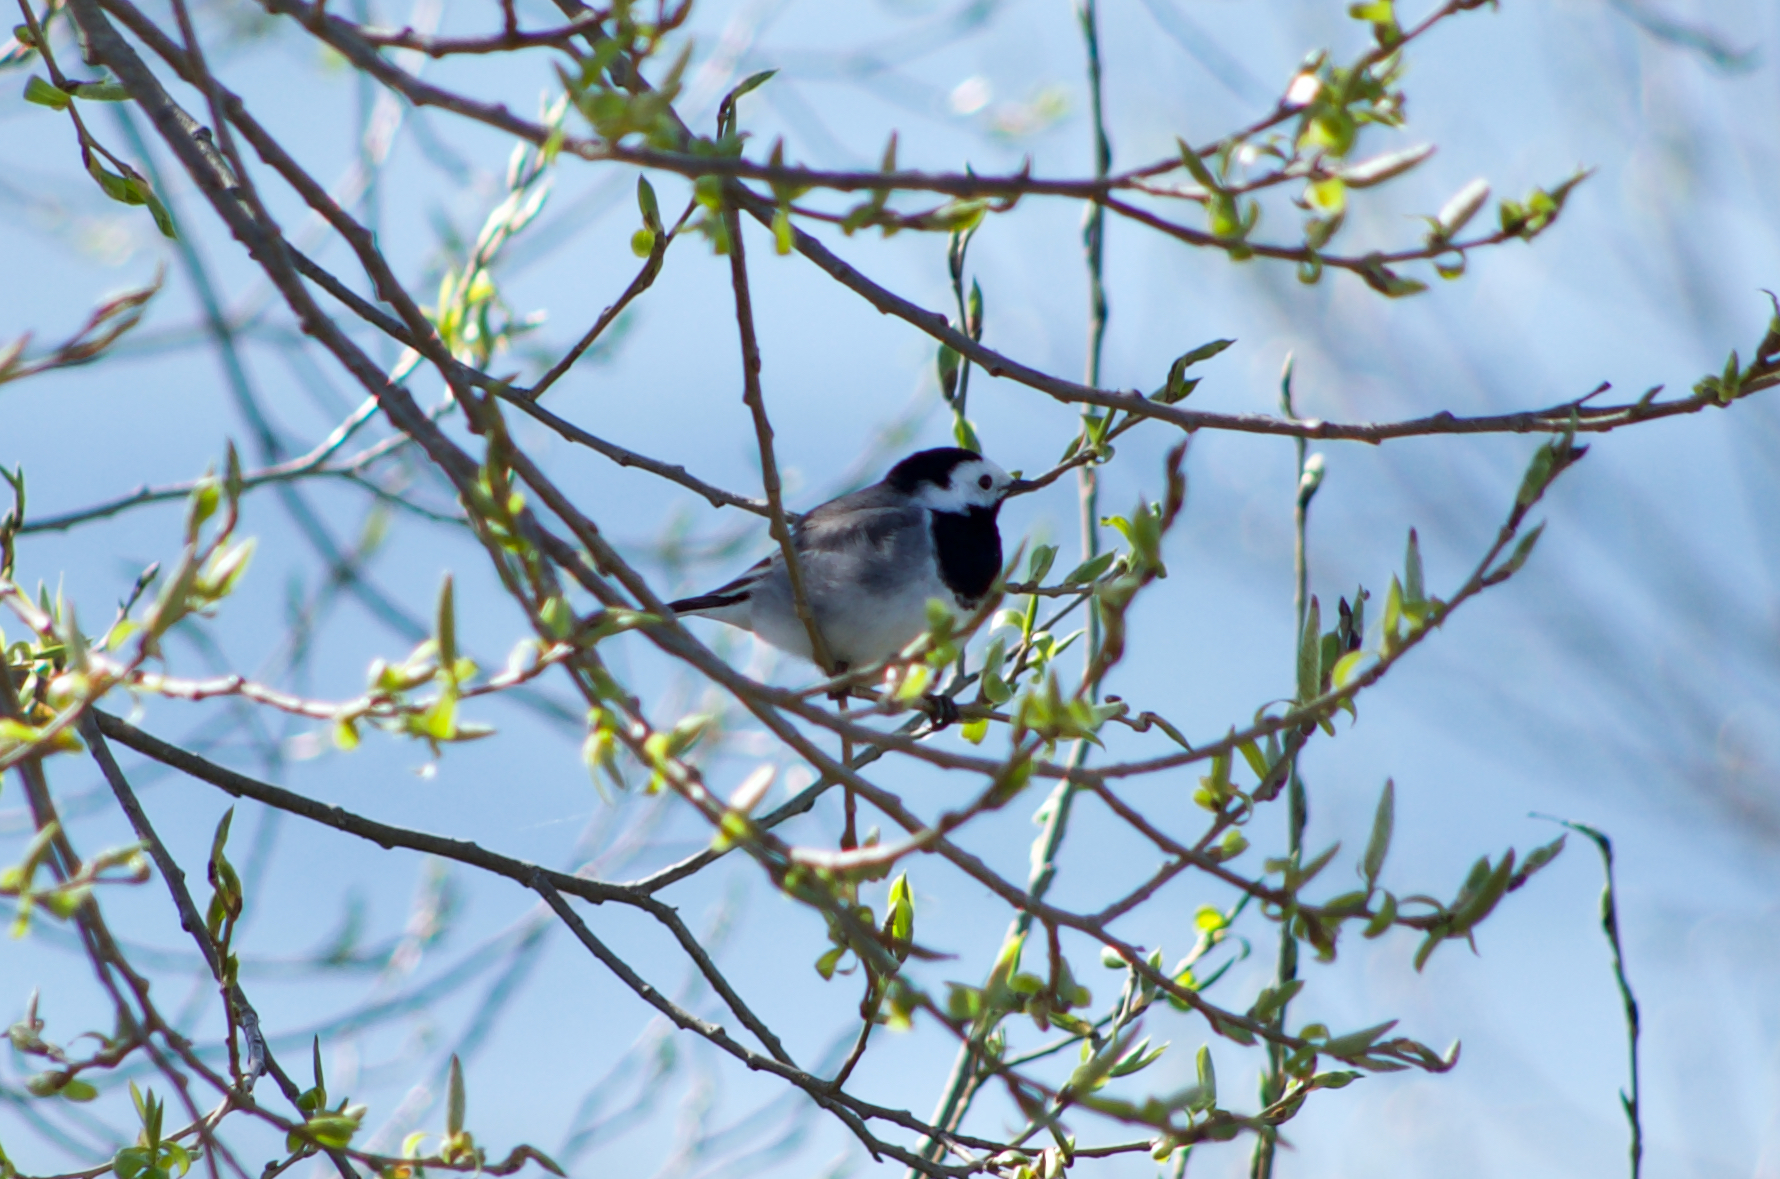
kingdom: Animalia
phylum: Chordata
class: Aves
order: Passeriformes
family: Motacillidae
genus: Motacilla
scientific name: Motacilla alba
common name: White wagtail
